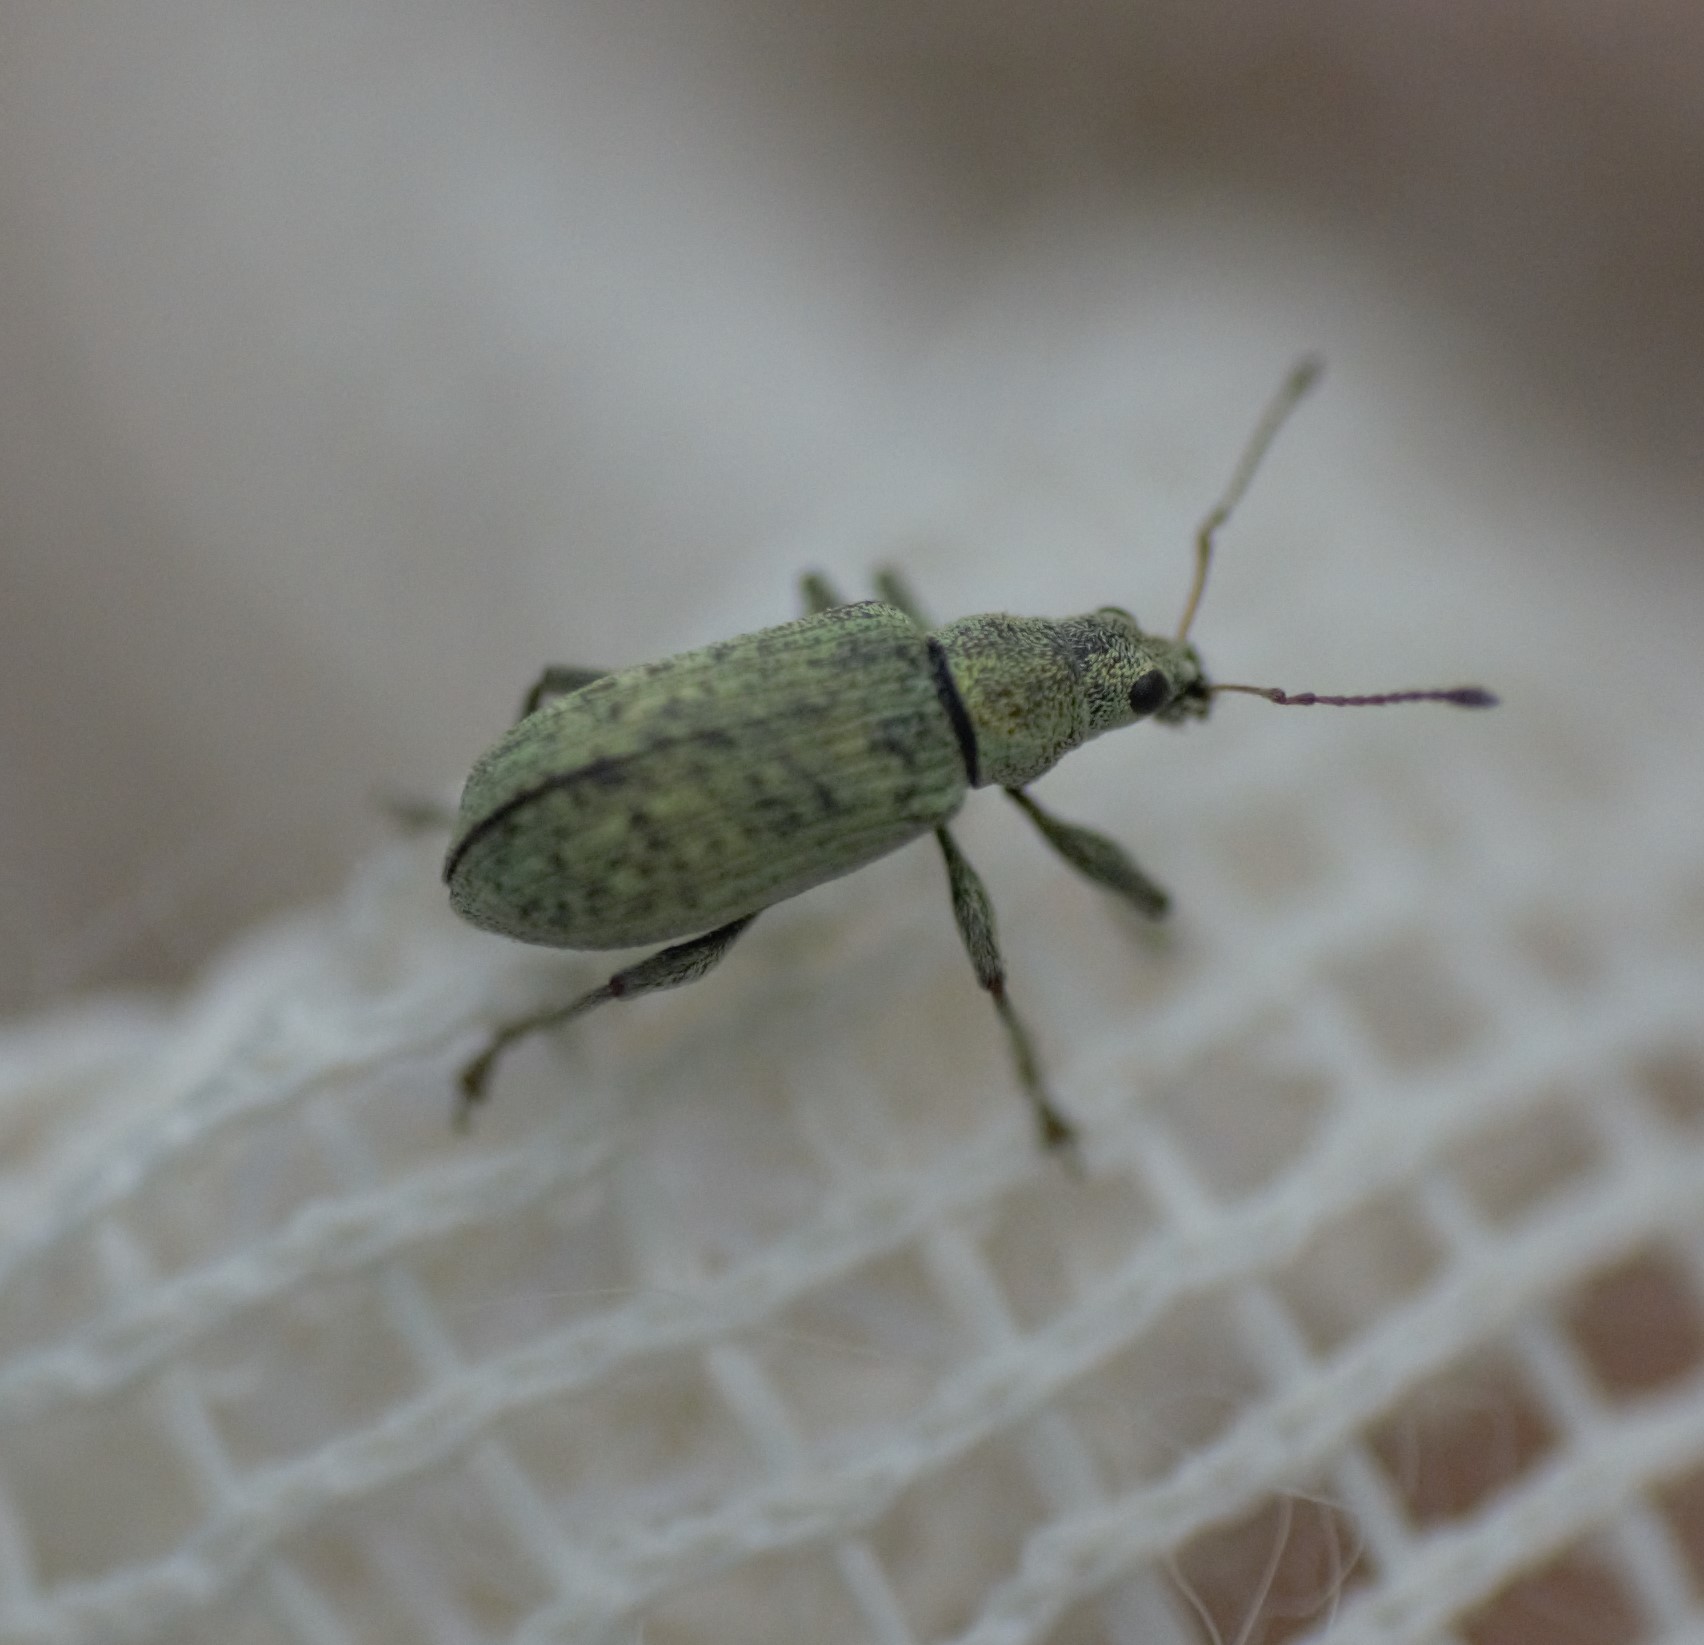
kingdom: Animalia
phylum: Arthropoda
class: Insecta
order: Coleoptera
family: Curculionidae
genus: Polydrusus
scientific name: Polydrusus cervinus
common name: Weevil
